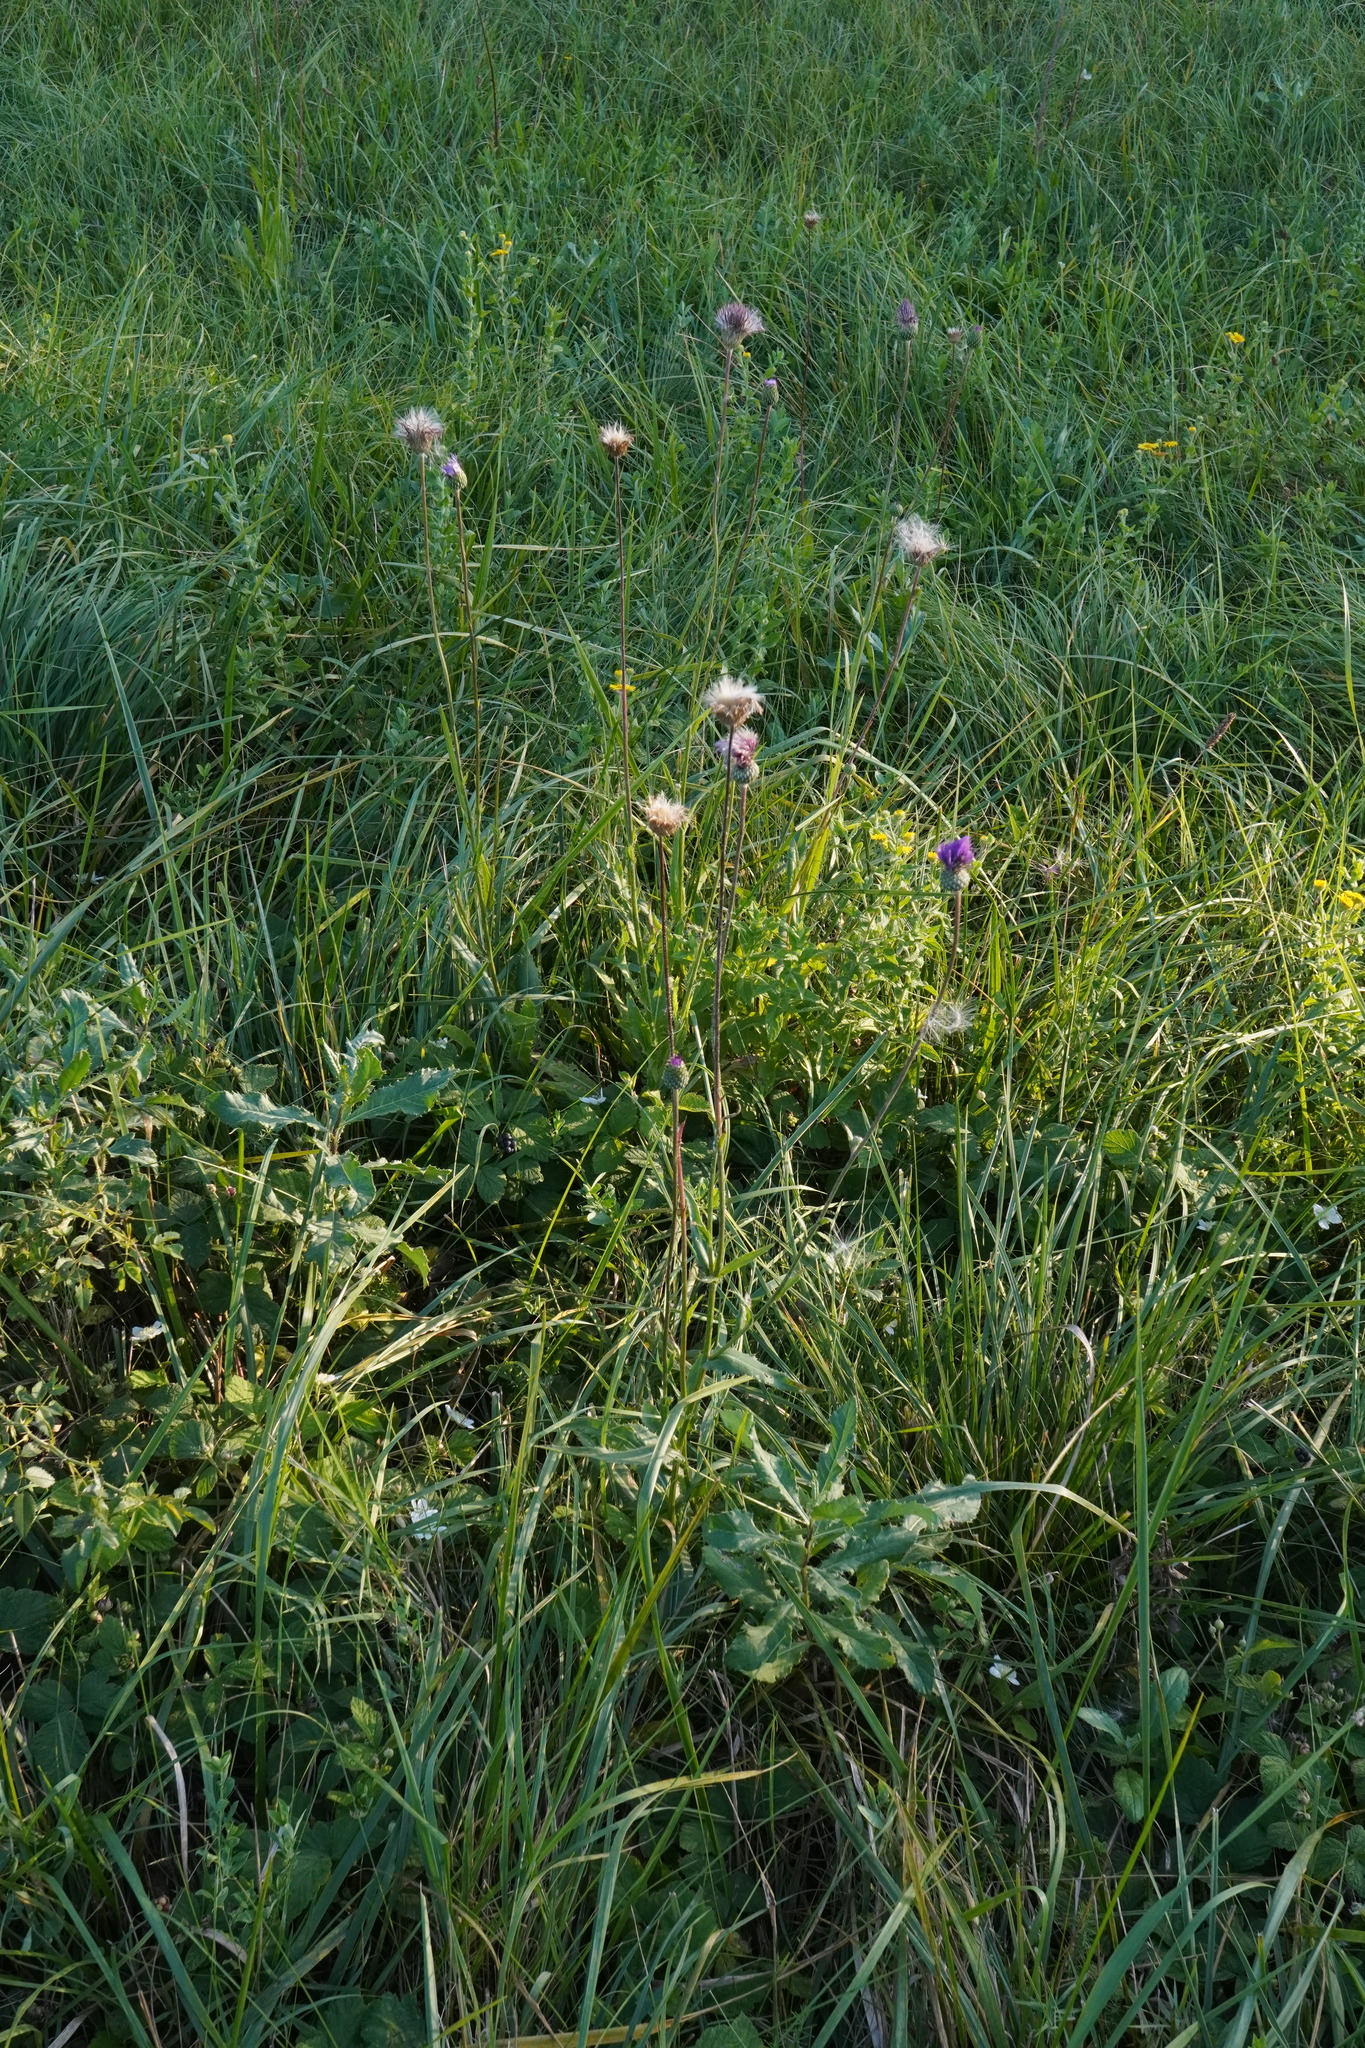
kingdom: Plantae
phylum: Tracheophyta
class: Magnoliopsida
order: Asterales
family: Asteraceae
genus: Cirsium
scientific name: Cirsium canum
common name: Queen anne's thistle
